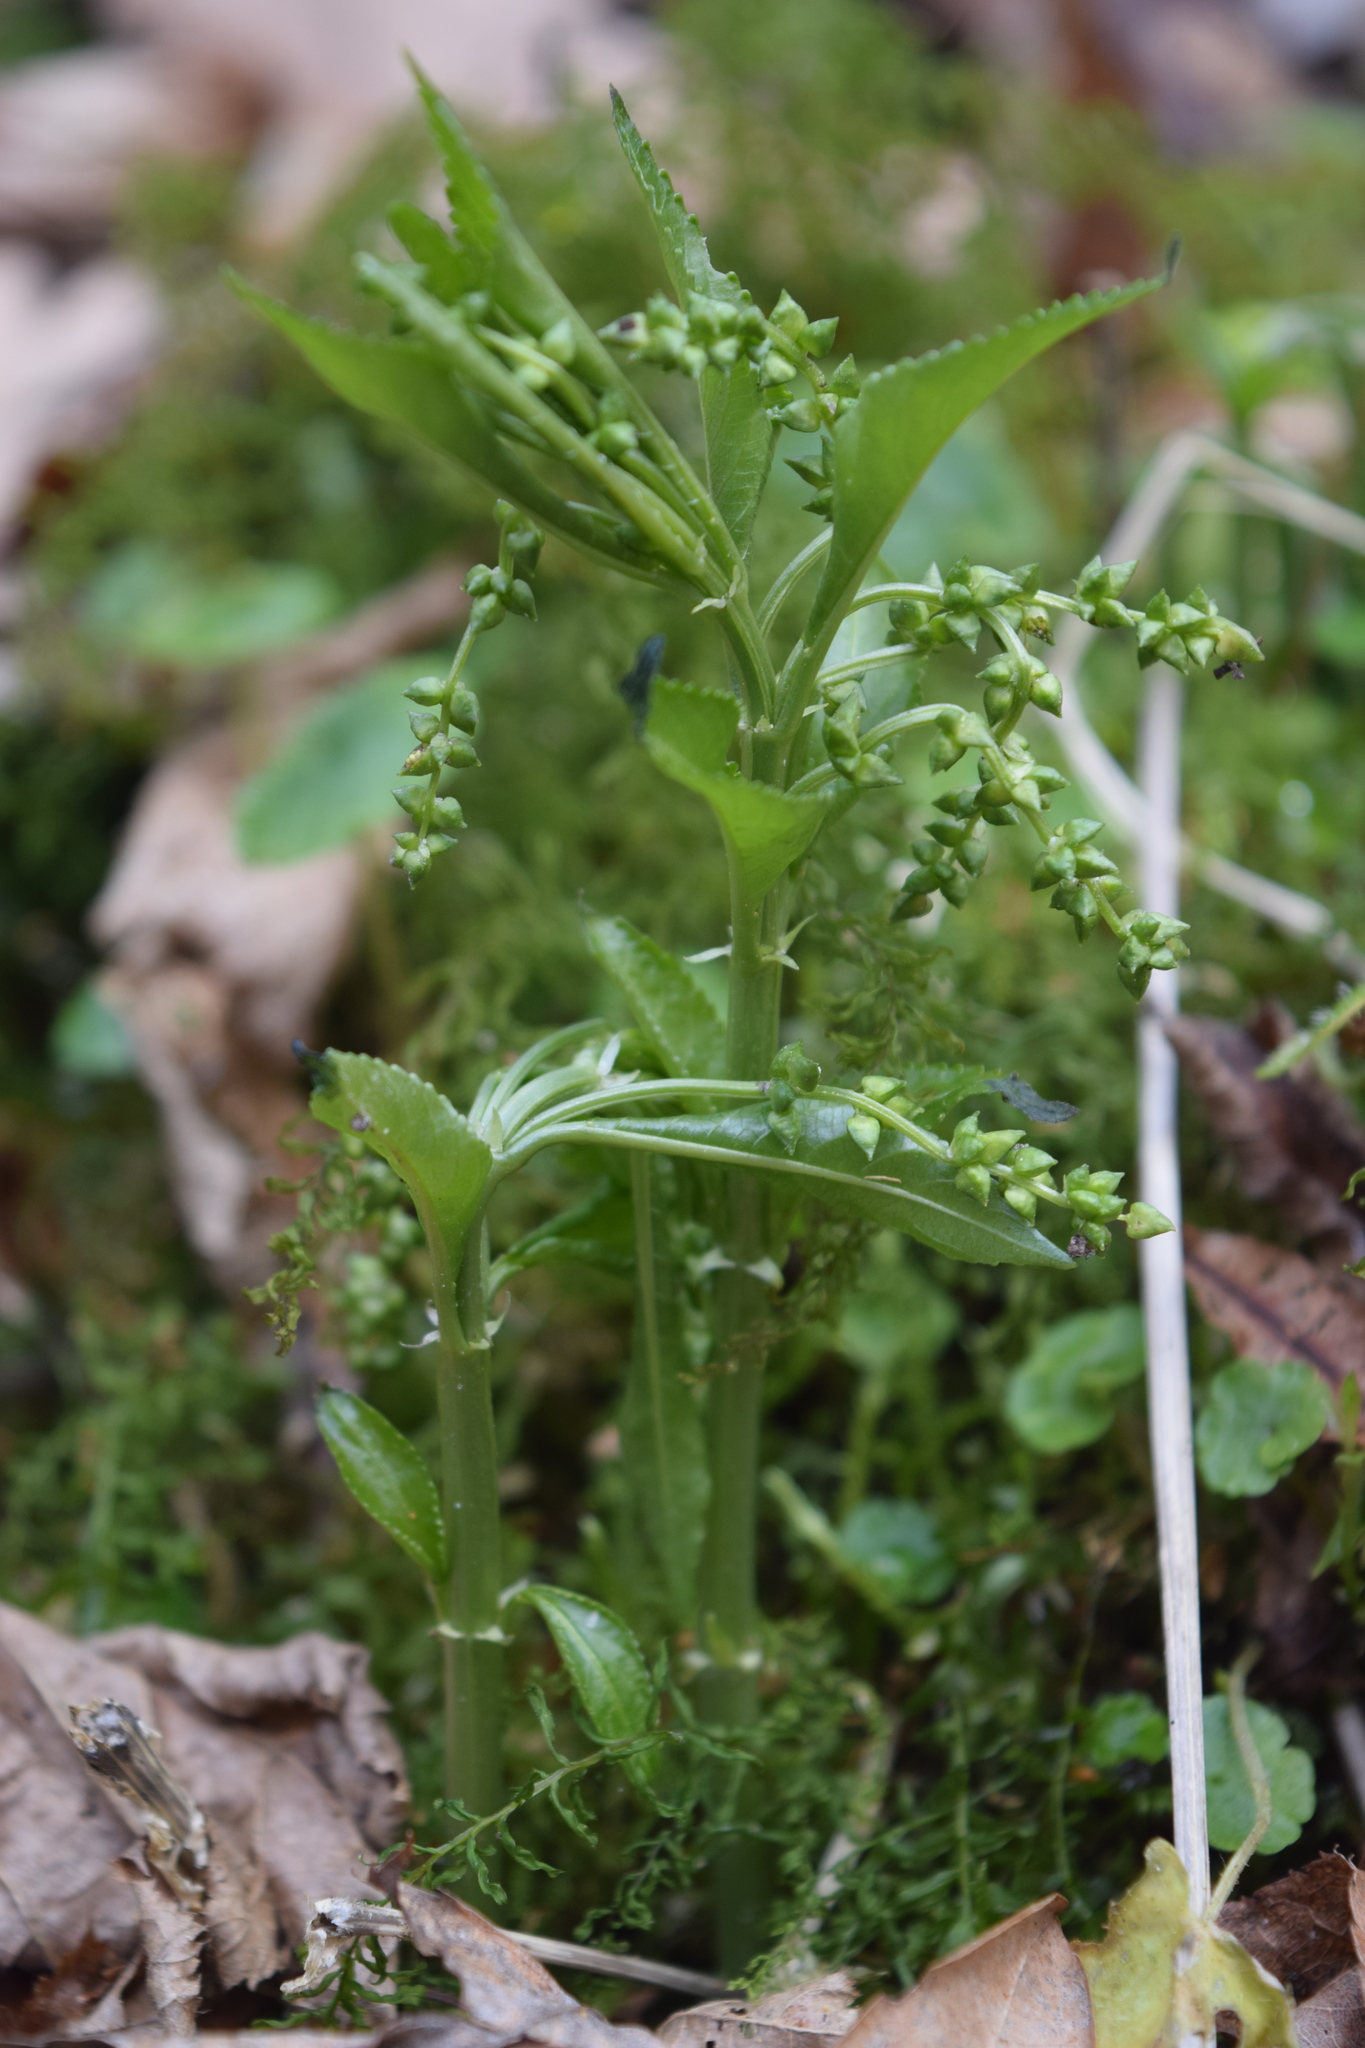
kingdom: Plantae
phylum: Tracheophyta
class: Magnoliopsida
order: Malpighiales
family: Euphorbiaceae
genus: Mercurialis
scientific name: Mercurialis perennis
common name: Dog mercury
